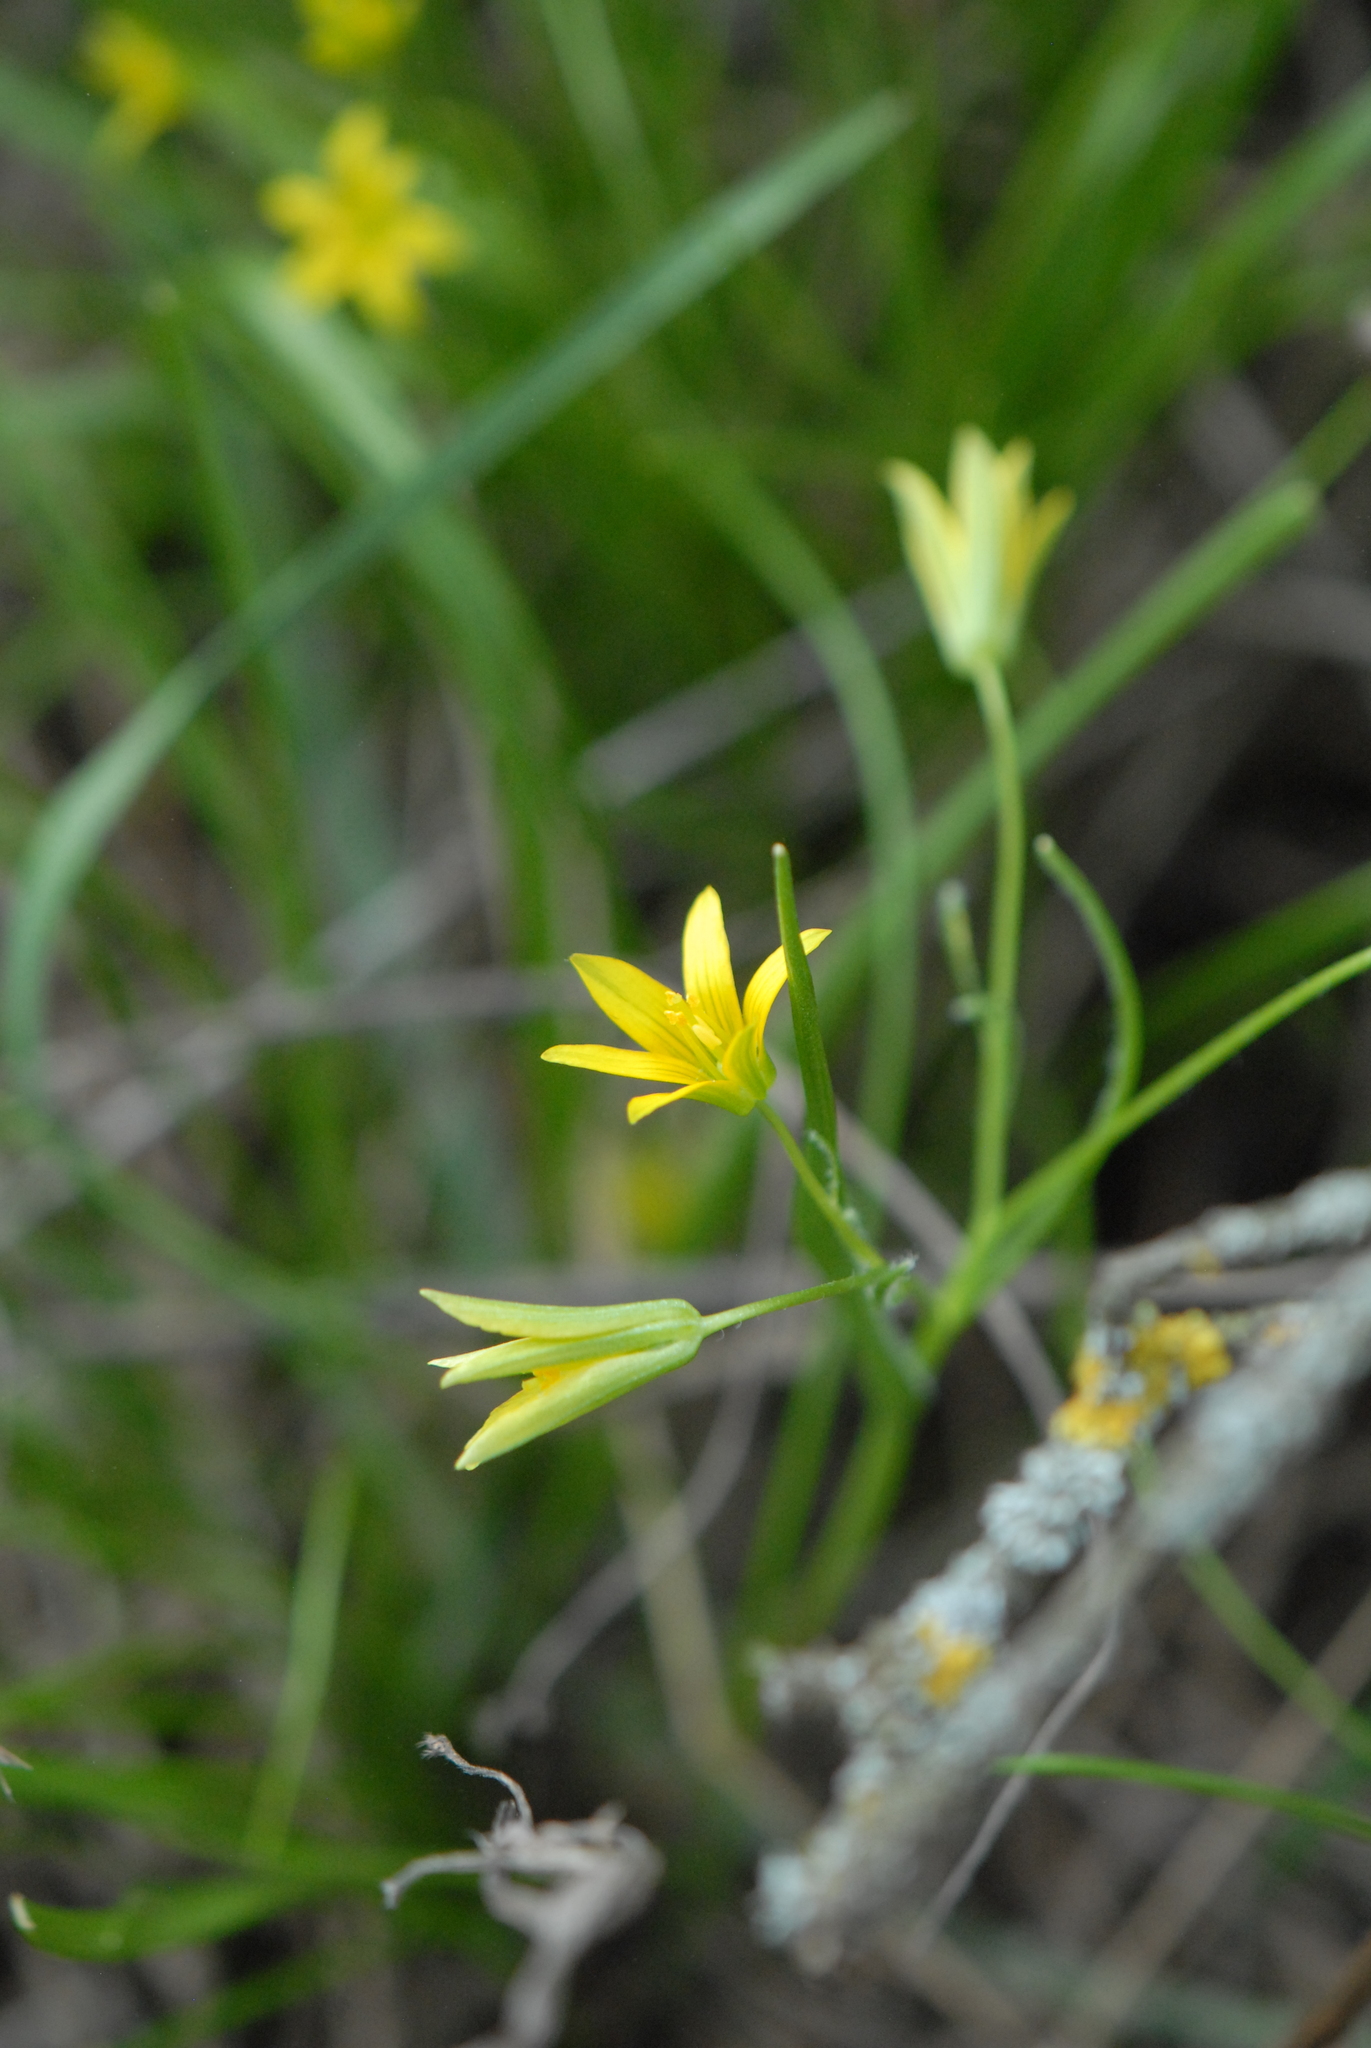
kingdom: Plantae
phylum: Tracheophyta
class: Liliopsida
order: Liliales
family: Liliaceae
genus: Gagea
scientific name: Gagea minima
